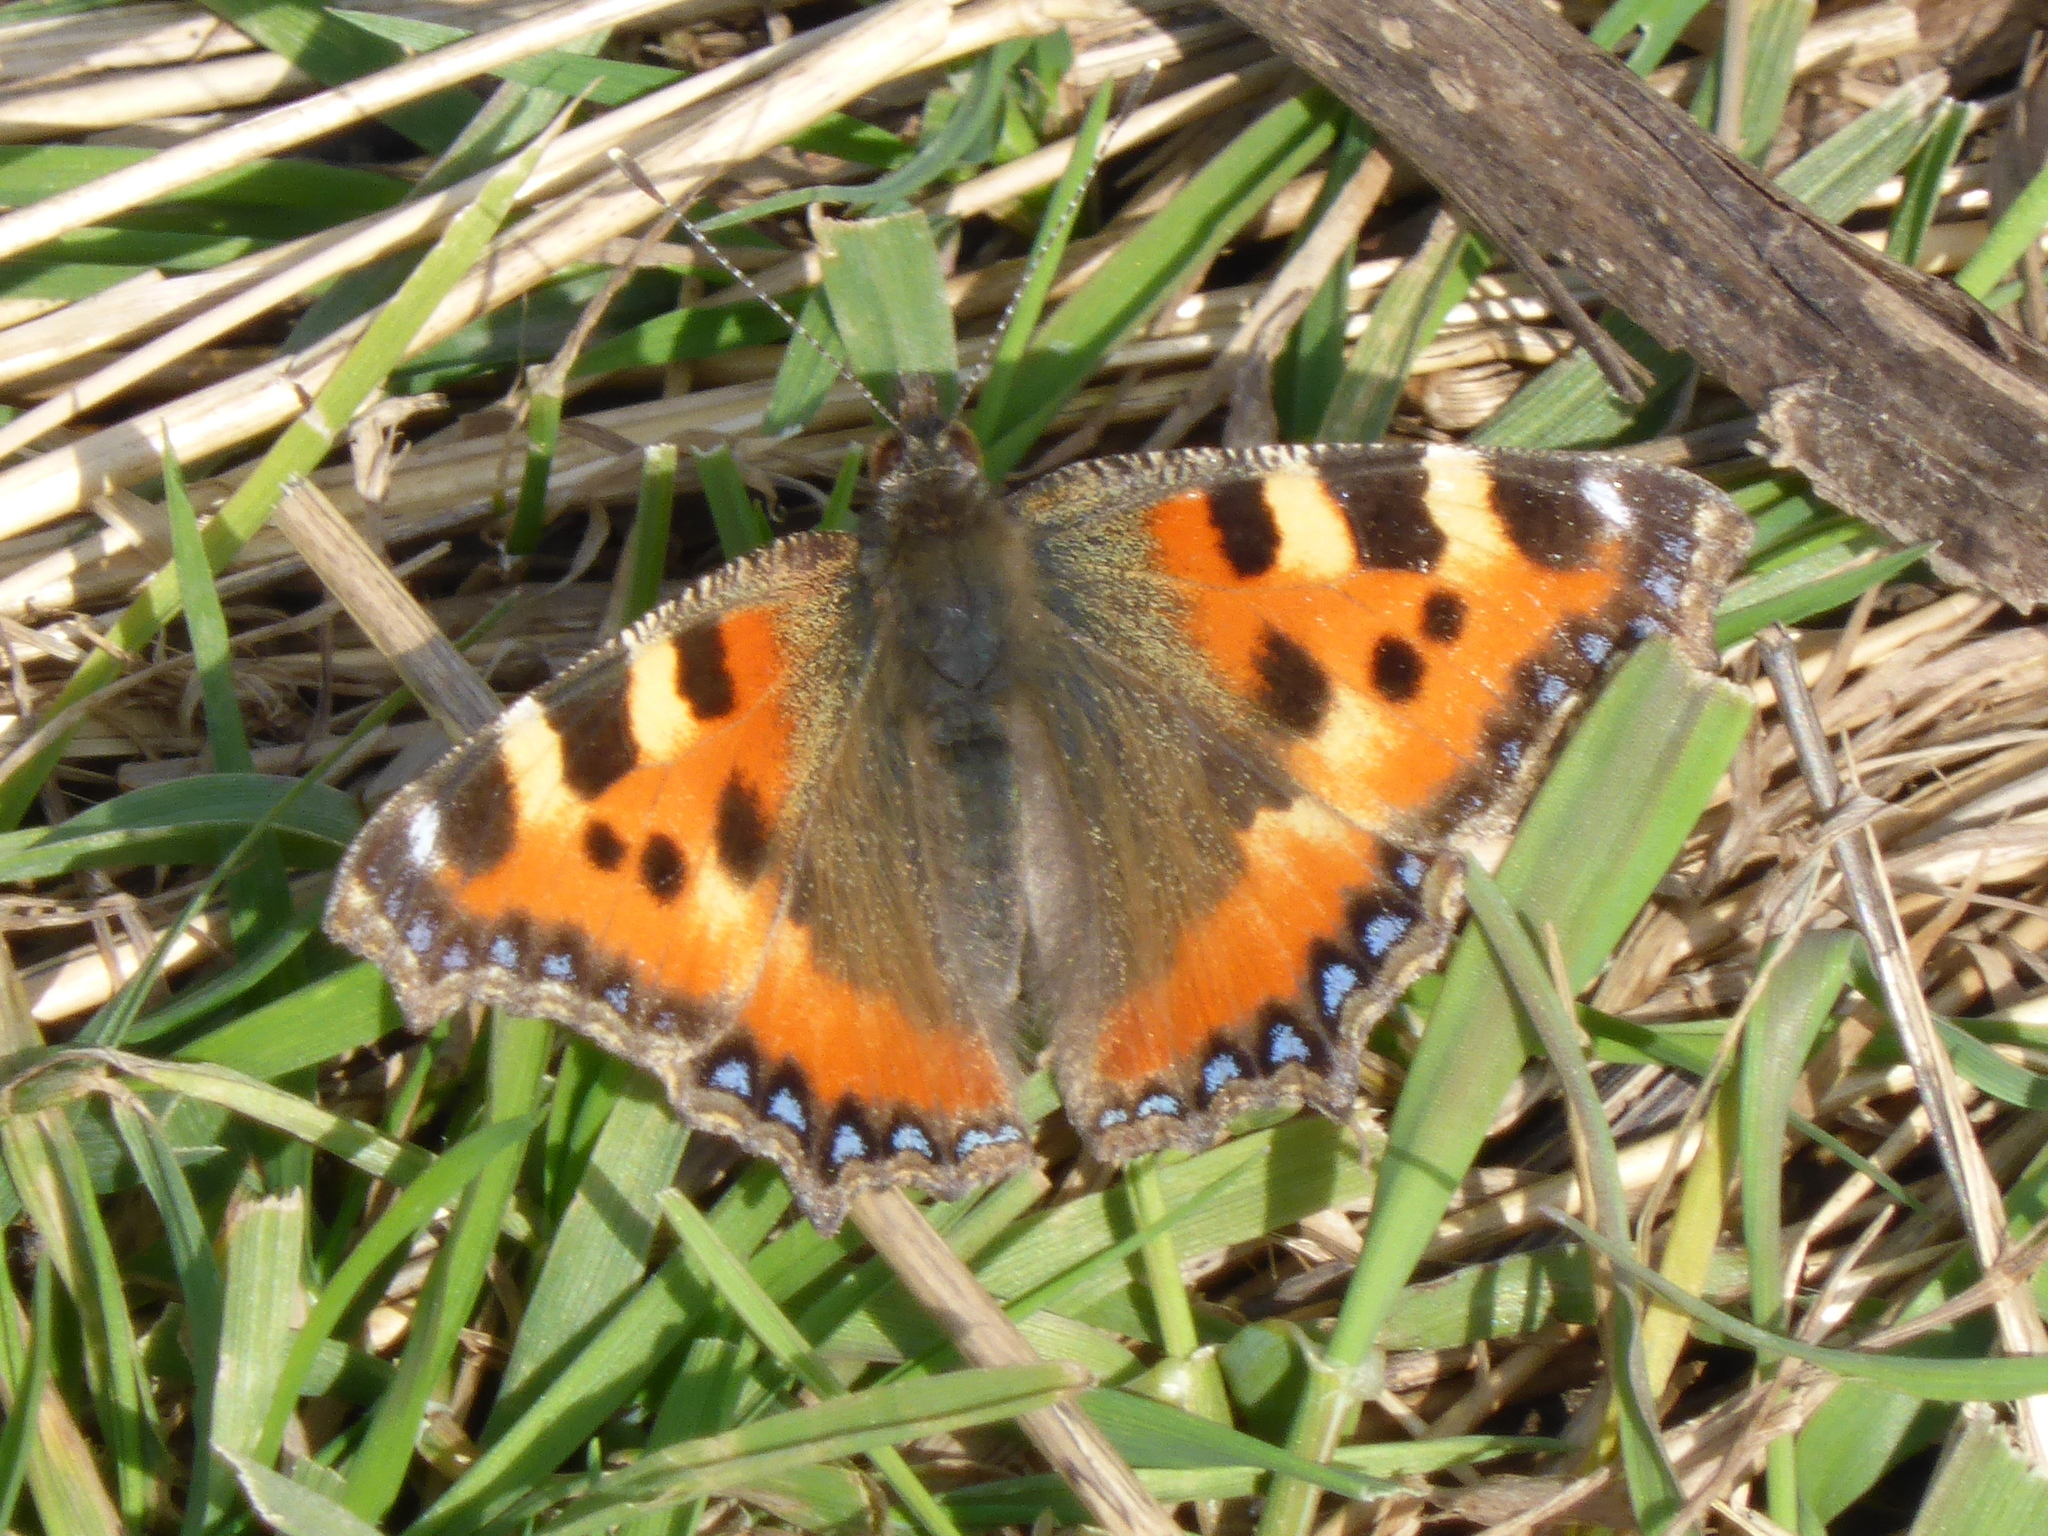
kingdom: Animalia
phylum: Arthropoda
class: Insecta
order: Lepidoptera
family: Nymphalidae
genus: Aglais
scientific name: Aglais urticae
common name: Small tortoiseshell
